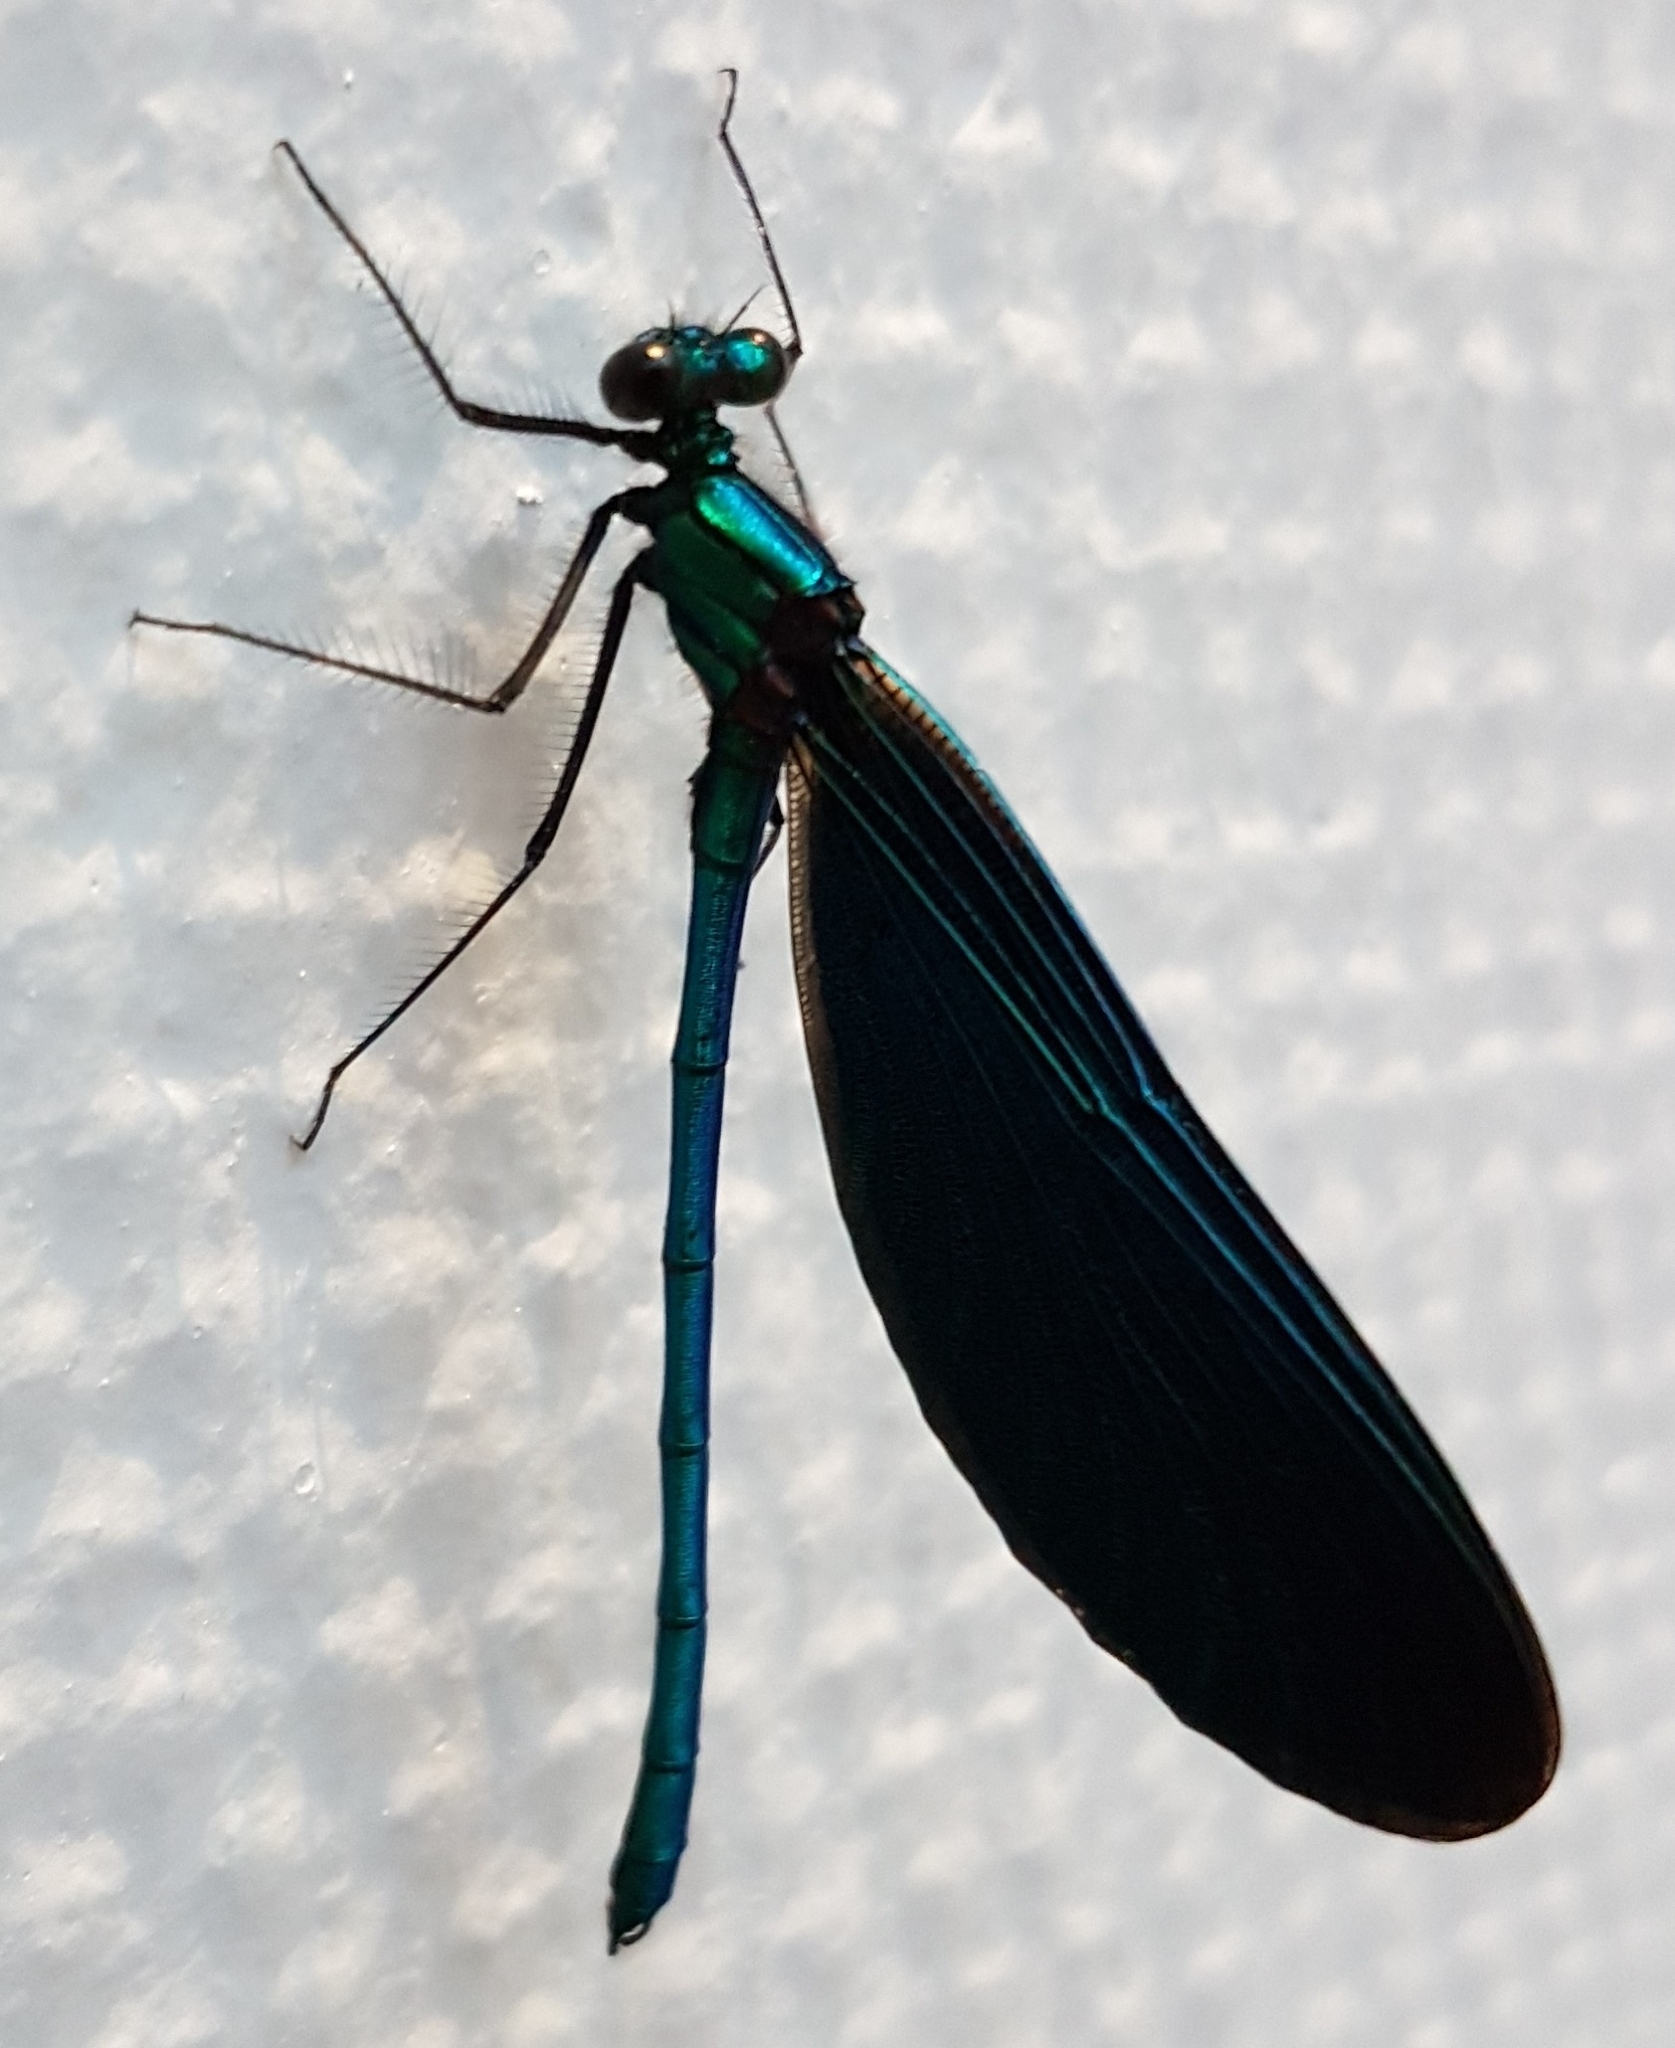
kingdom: Animalia
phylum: Arthropoda
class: Insecta
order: Odonata
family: Calopterygidae
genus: Calopteryx
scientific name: Calopteryx virgo
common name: Beautiful demoiselle
